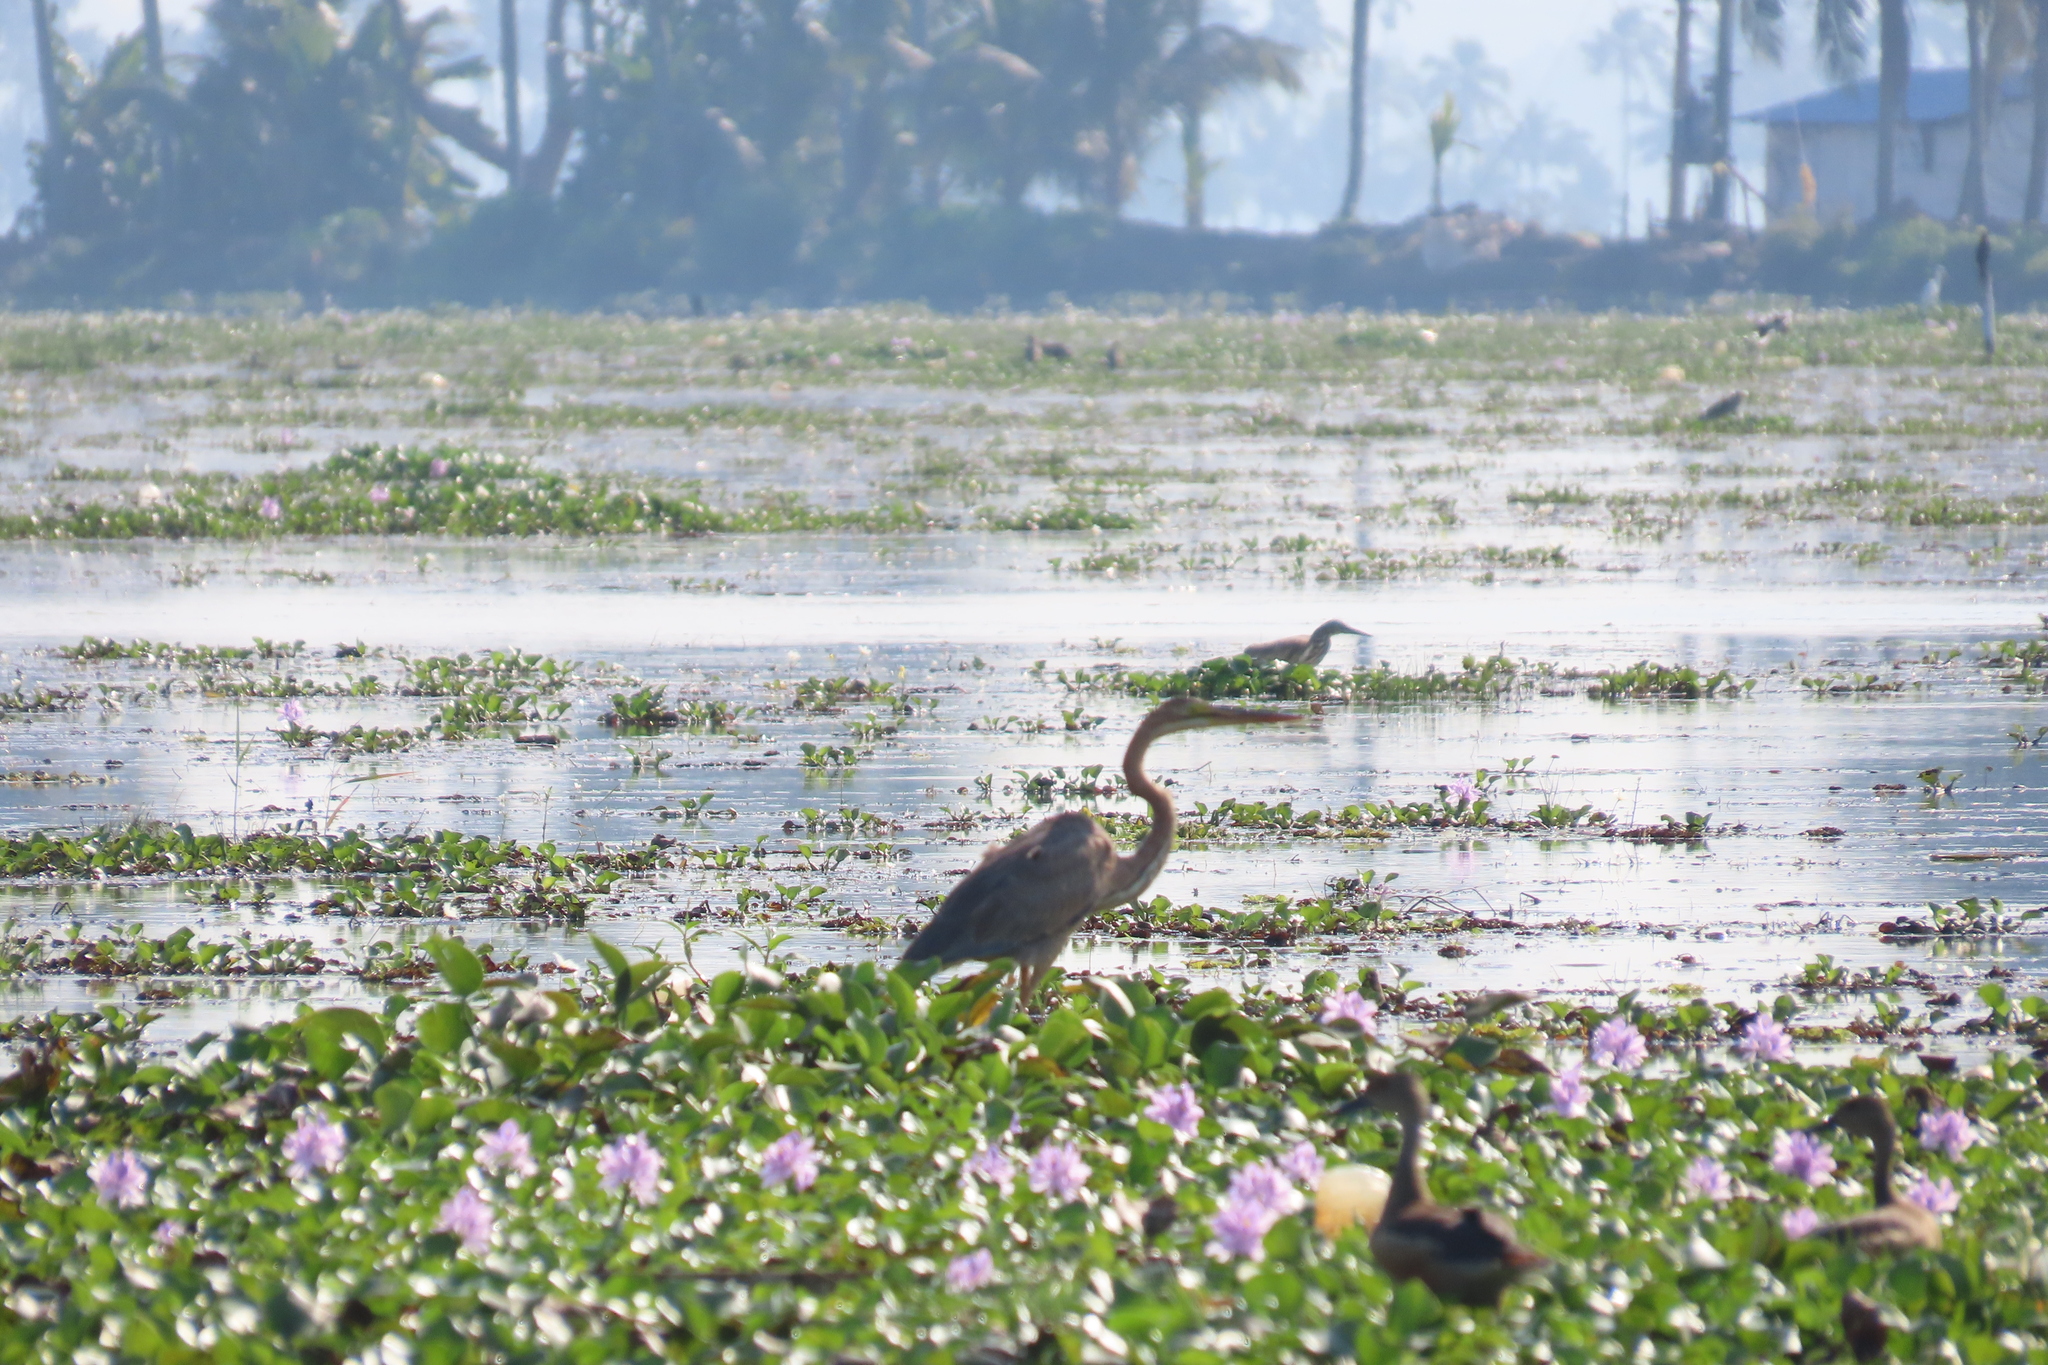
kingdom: Animalia
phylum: Chordata
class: Aves
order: Pelecaniformes
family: Ardeidae
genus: Ardea
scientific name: Ardea purpurea
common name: Purple heron
